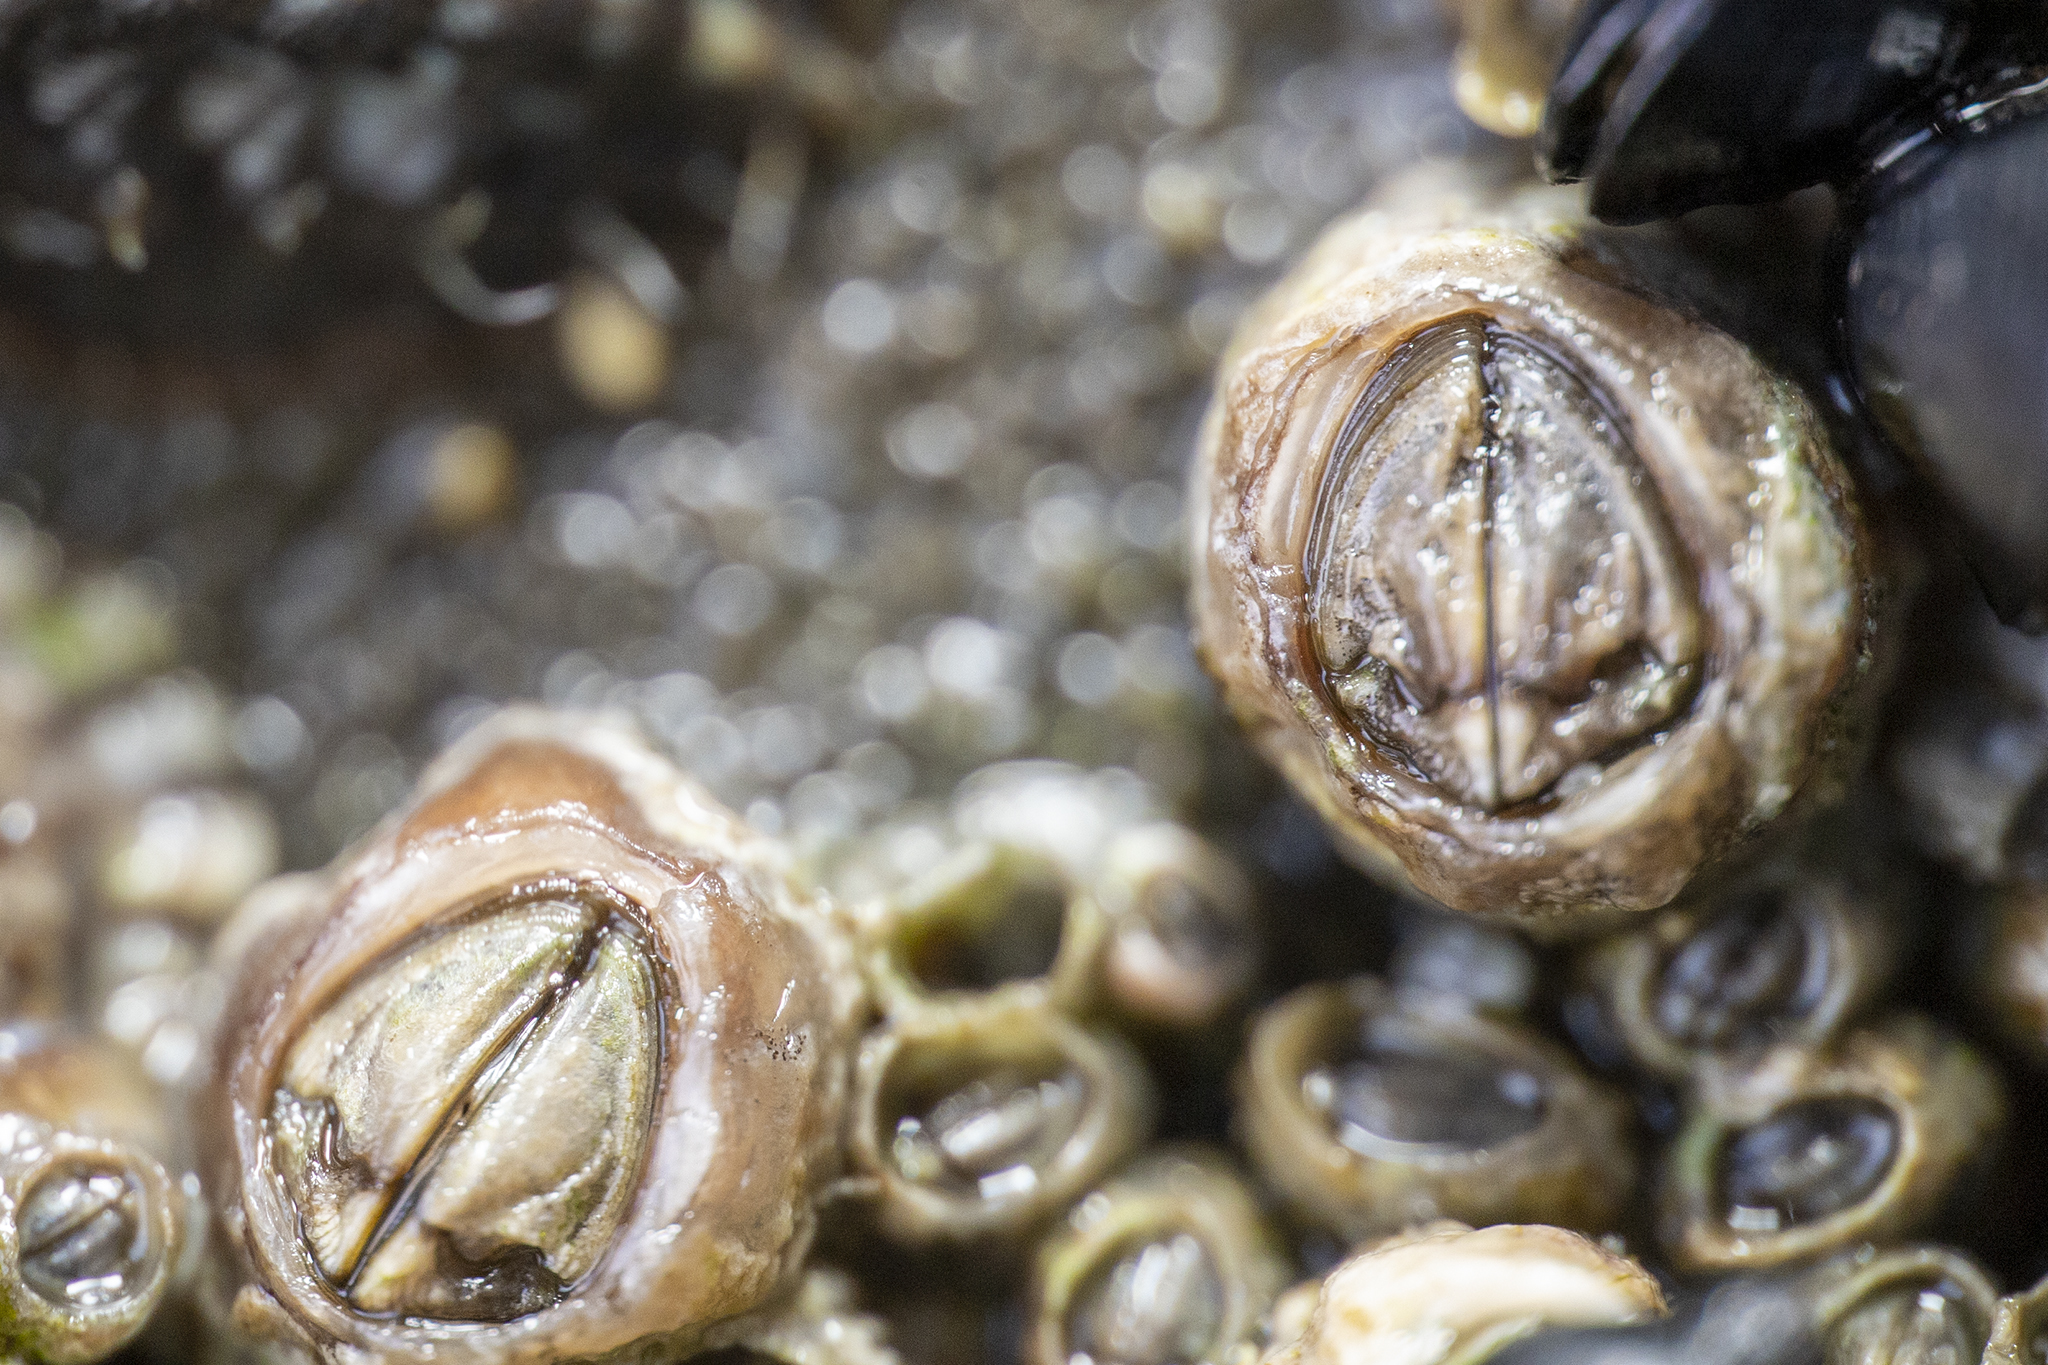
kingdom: Animalia
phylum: Arthropoda
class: Maxillopoda
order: Sessilia
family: Chthamalidae
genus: Chamaesipho
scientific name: Chamaesipho columna
